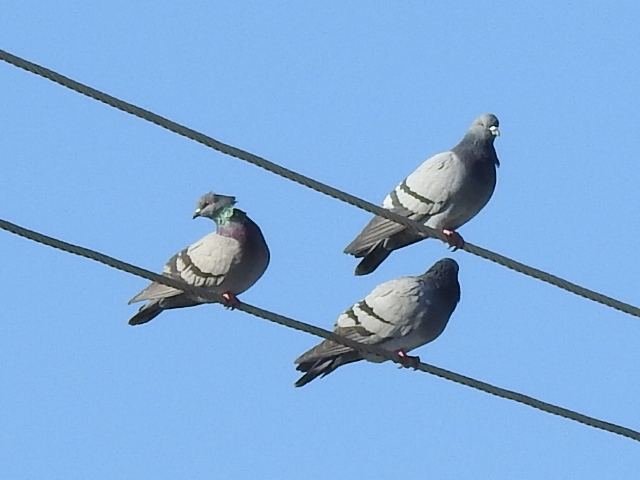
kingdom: Animalia
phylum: Chordata
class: Aves
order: Columbiformes
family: Columbidae
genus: Columba
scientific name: Columba livia
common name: Rock pigeon
